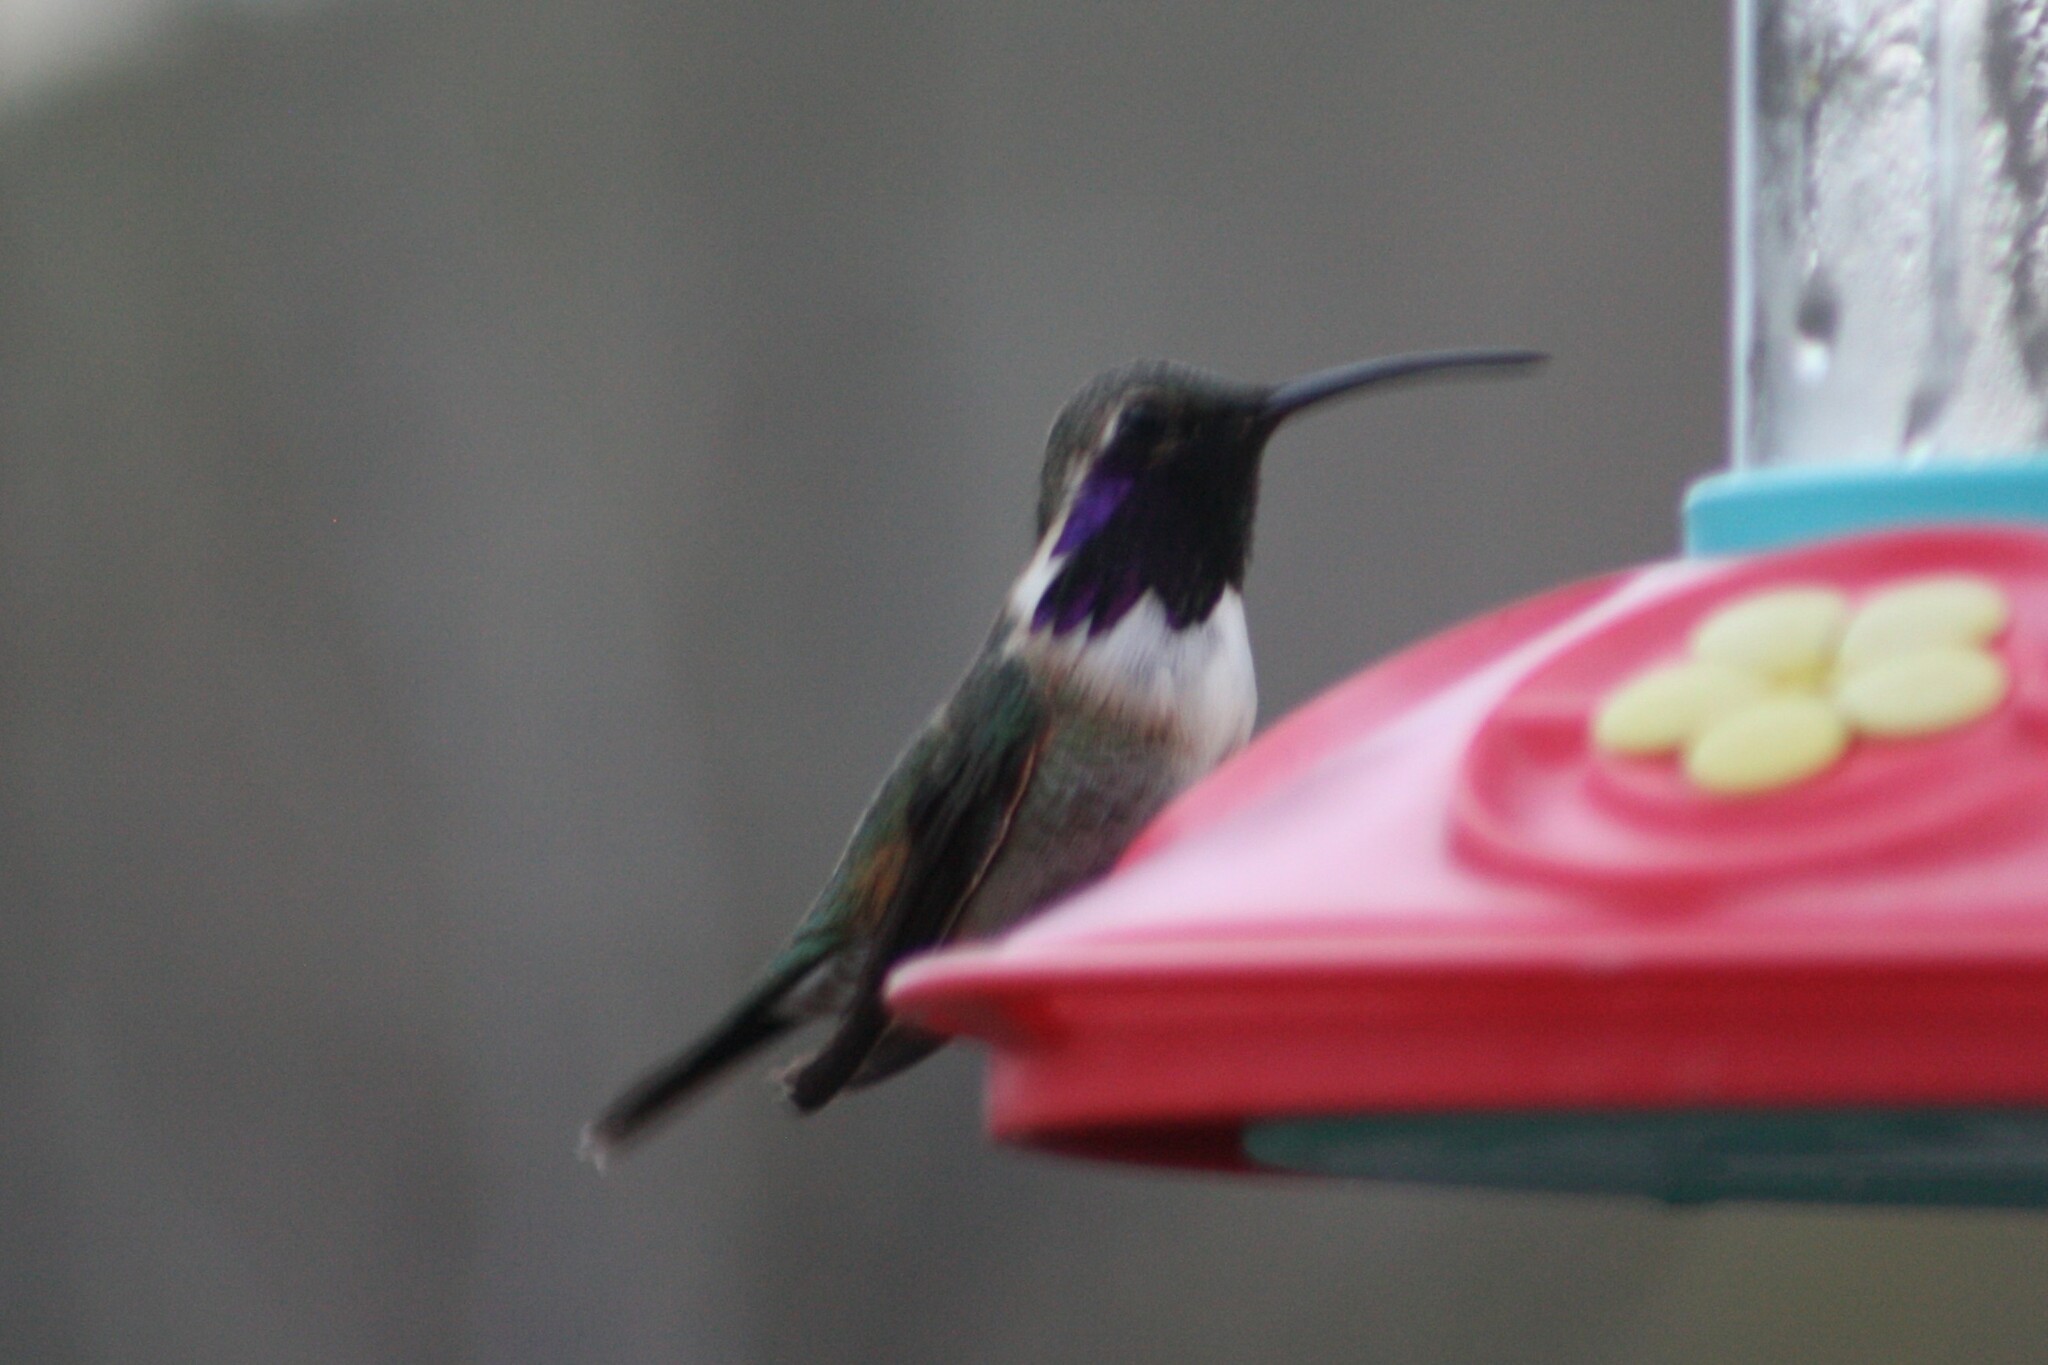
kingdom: Animalia
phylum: Chordata
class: Aves
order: Apodiformes
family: Trochilidae
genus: Calothorax
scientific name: Calothorax lucifer
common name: Lucifer sheartail
